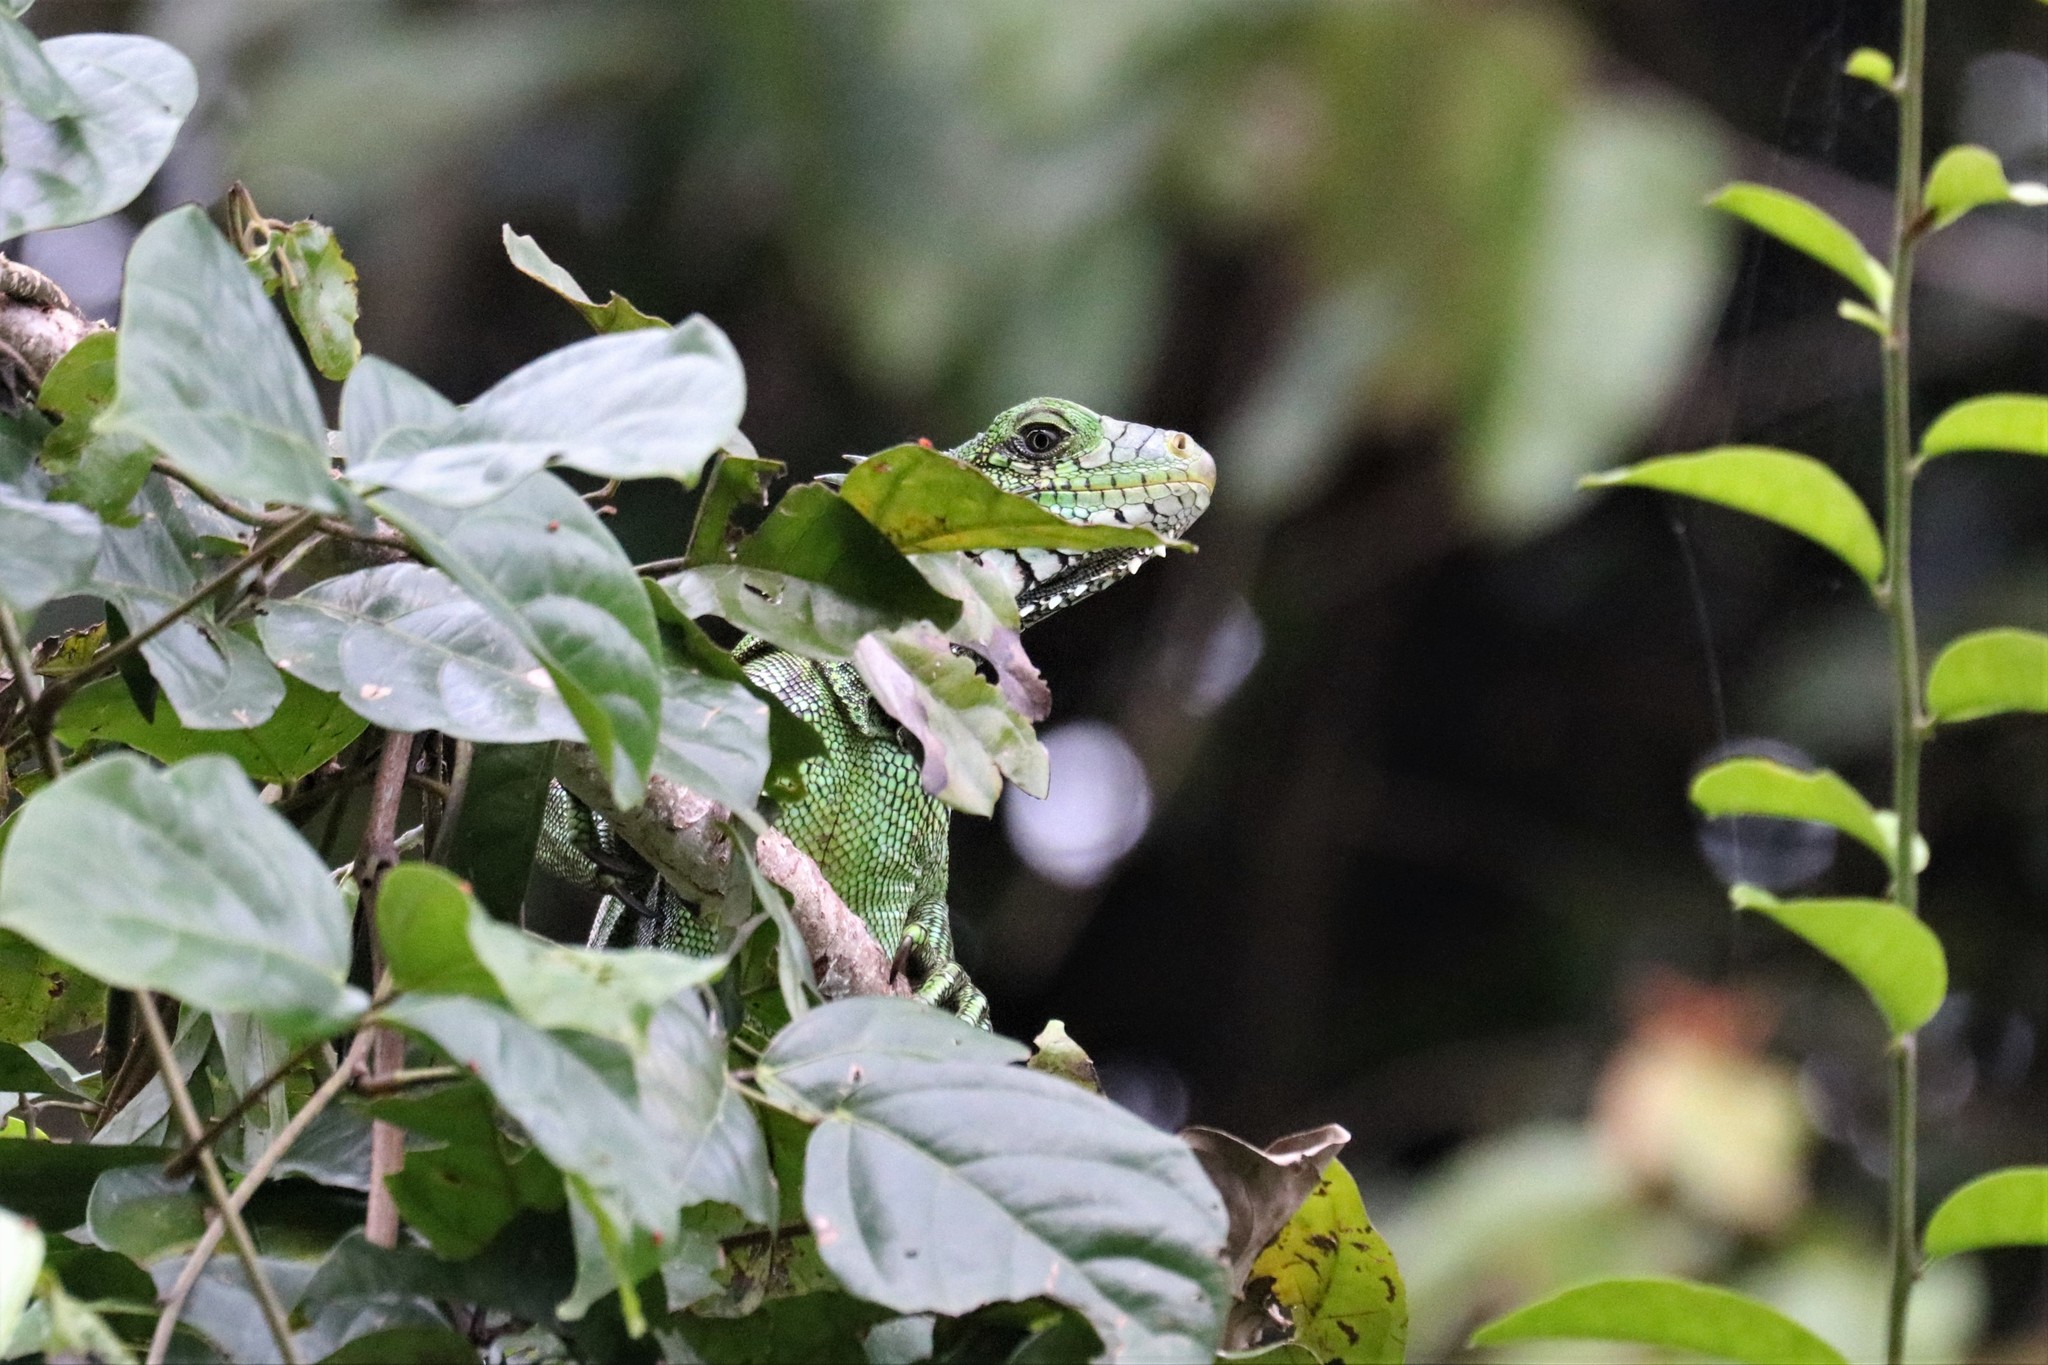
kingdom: Animalia
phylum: Chordata
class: Squamata
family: Iguanidae
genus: Iguana
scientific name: Iguana iguana
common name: Green iguana
